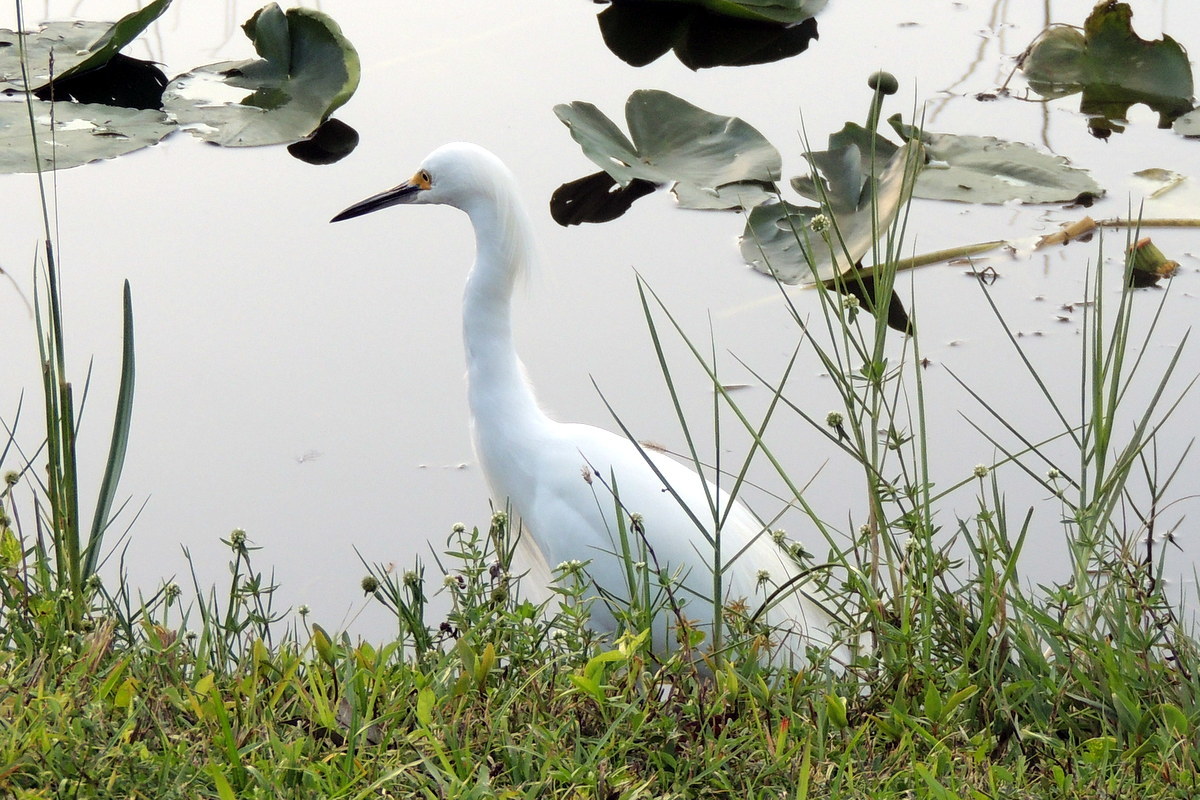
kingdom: Animalia
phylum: Chordata
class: Aves
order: Pelecaniformes
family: Ardeidae
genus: Egretta
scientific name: Egretta thula
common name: Snowy egret
